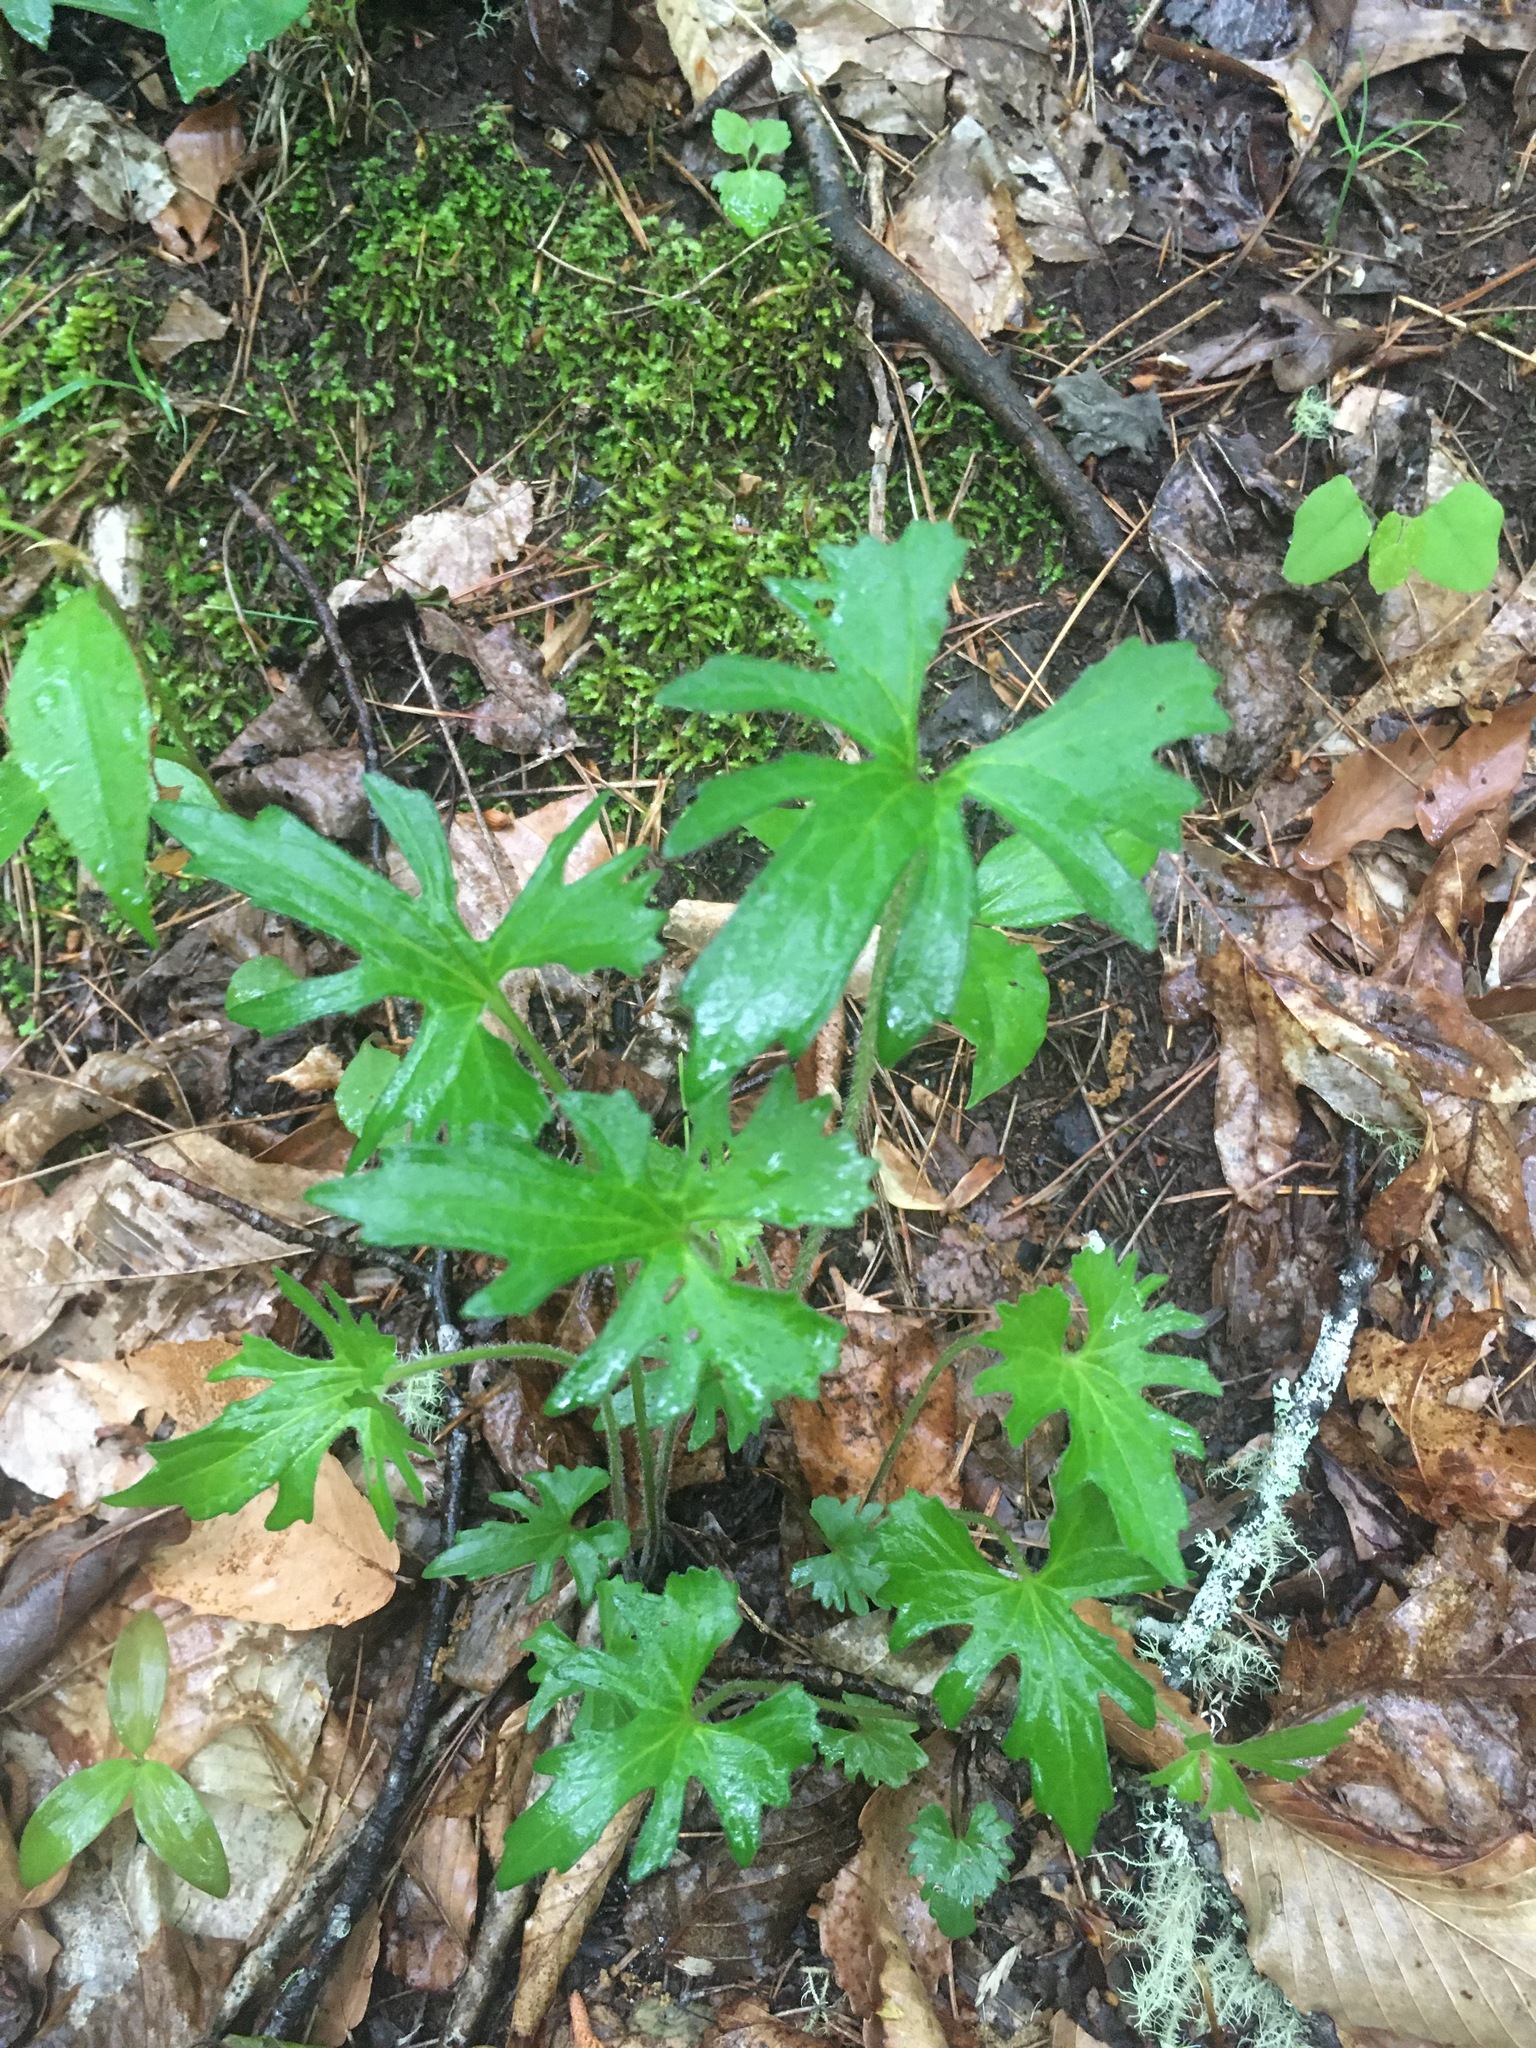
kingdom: Plantae
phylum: Tracheophyta
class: Magnoliopsida
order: Malpighiales
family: Violaceae
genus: Viola
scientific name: Viola palmata
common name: Early blue violet
